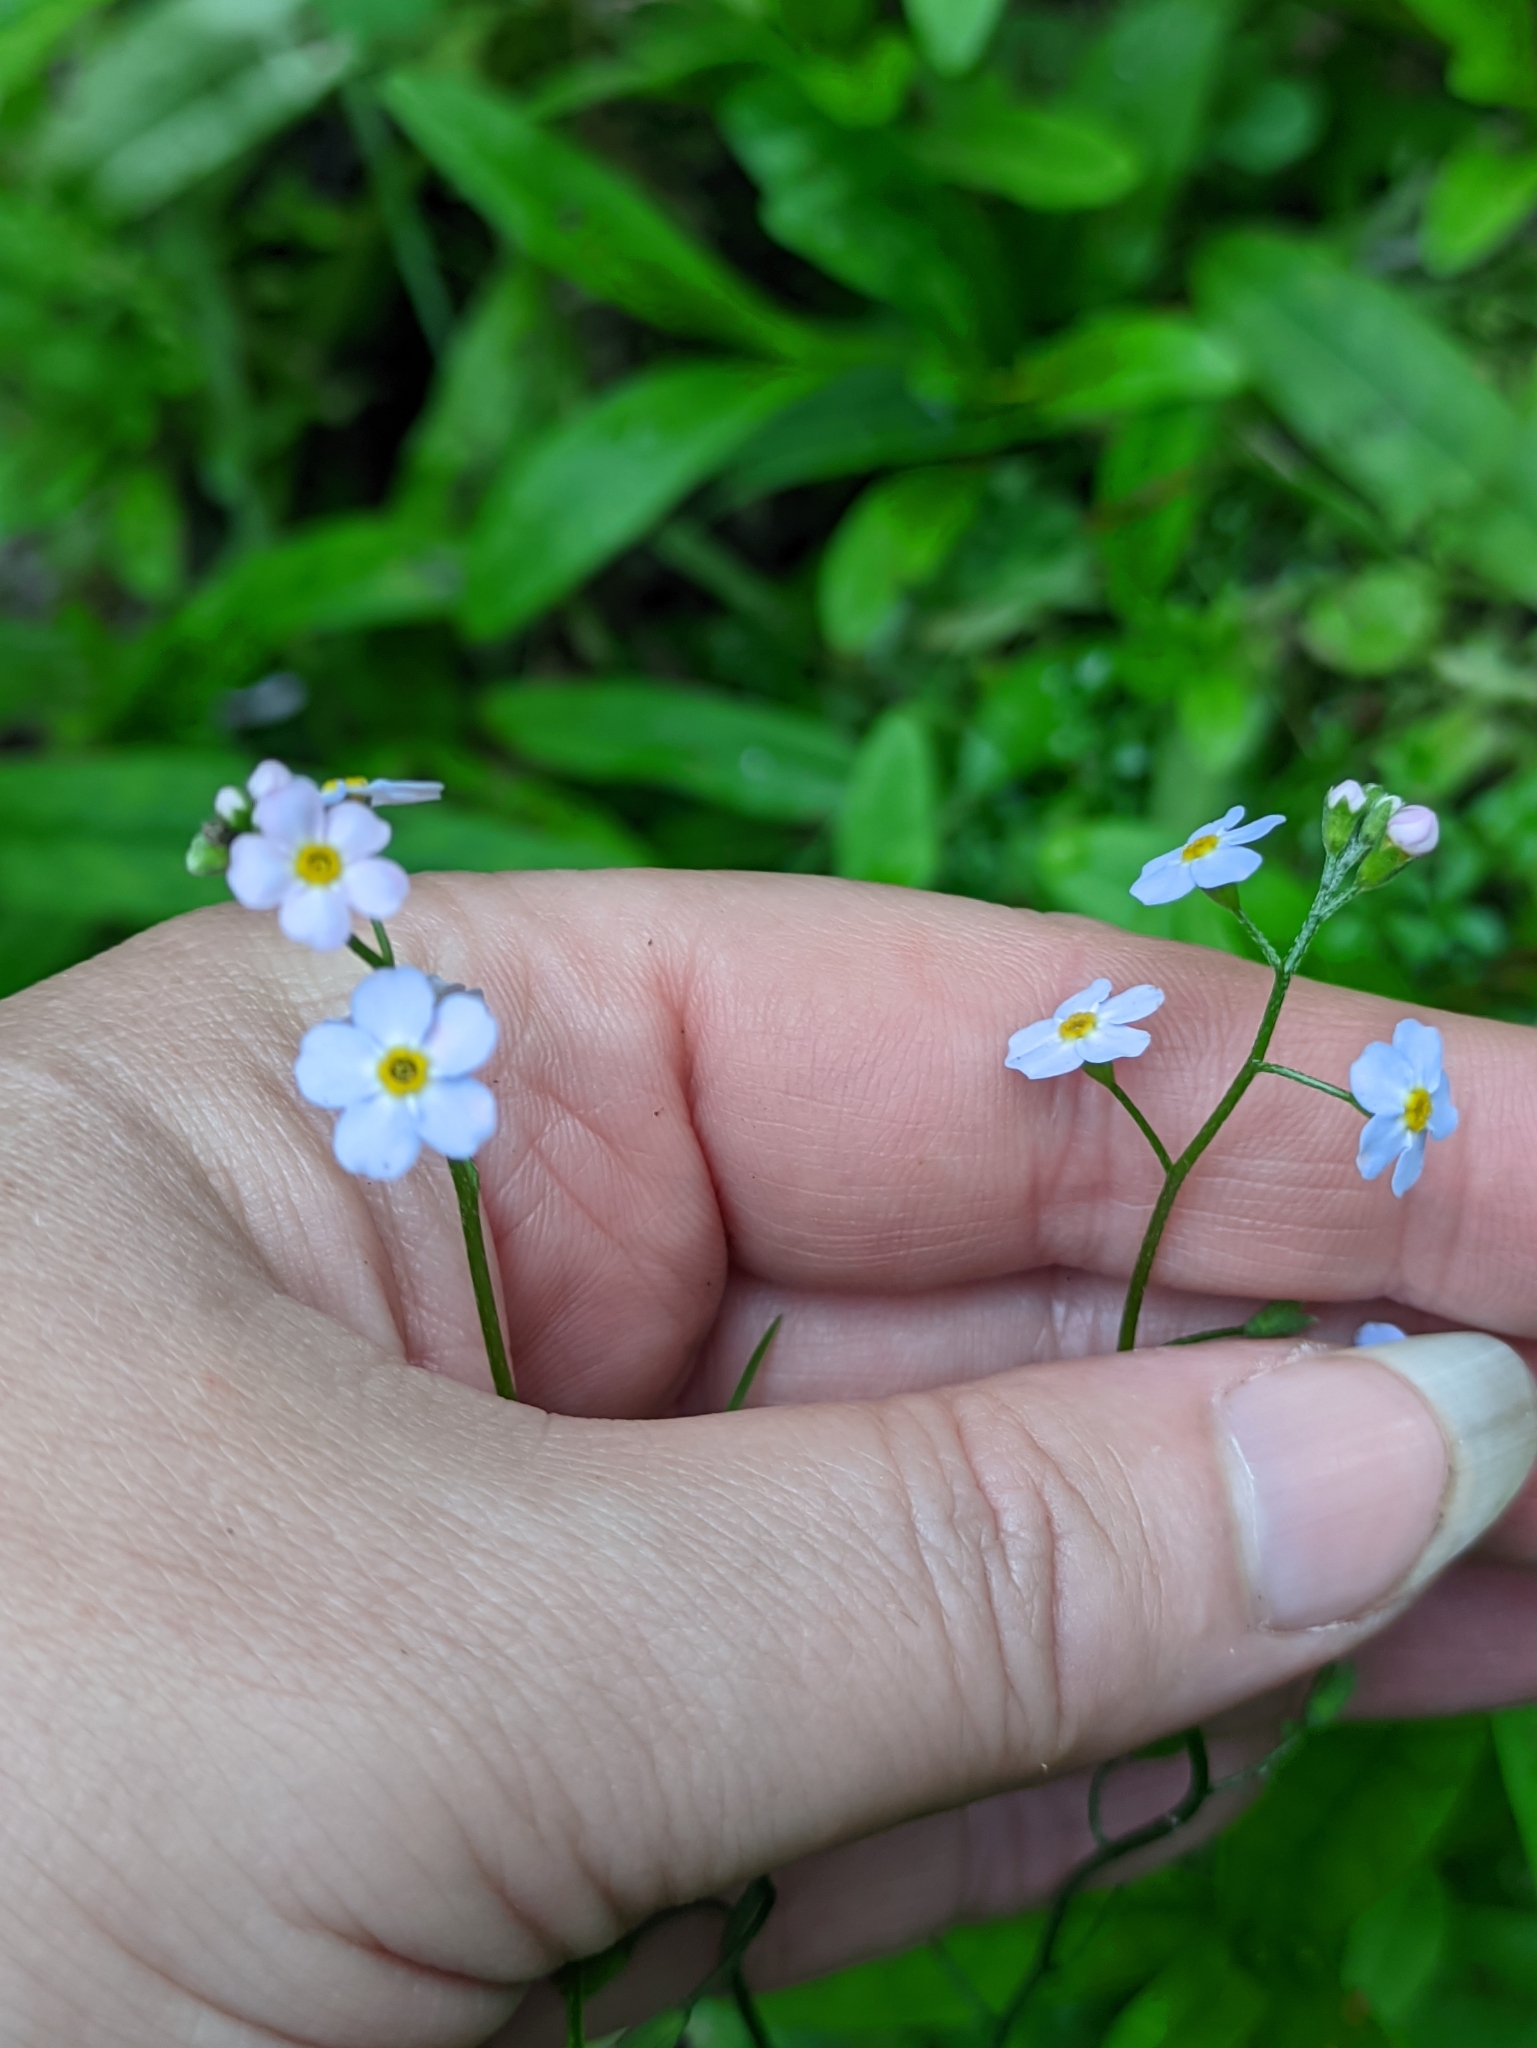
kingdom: Plantae
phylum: Tracheophyta
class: Magnoliopsida
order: Boraginales
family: Boraginaceae
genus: Myosotis
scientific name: Myosotis scorpioides
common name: Water forget-me-not
